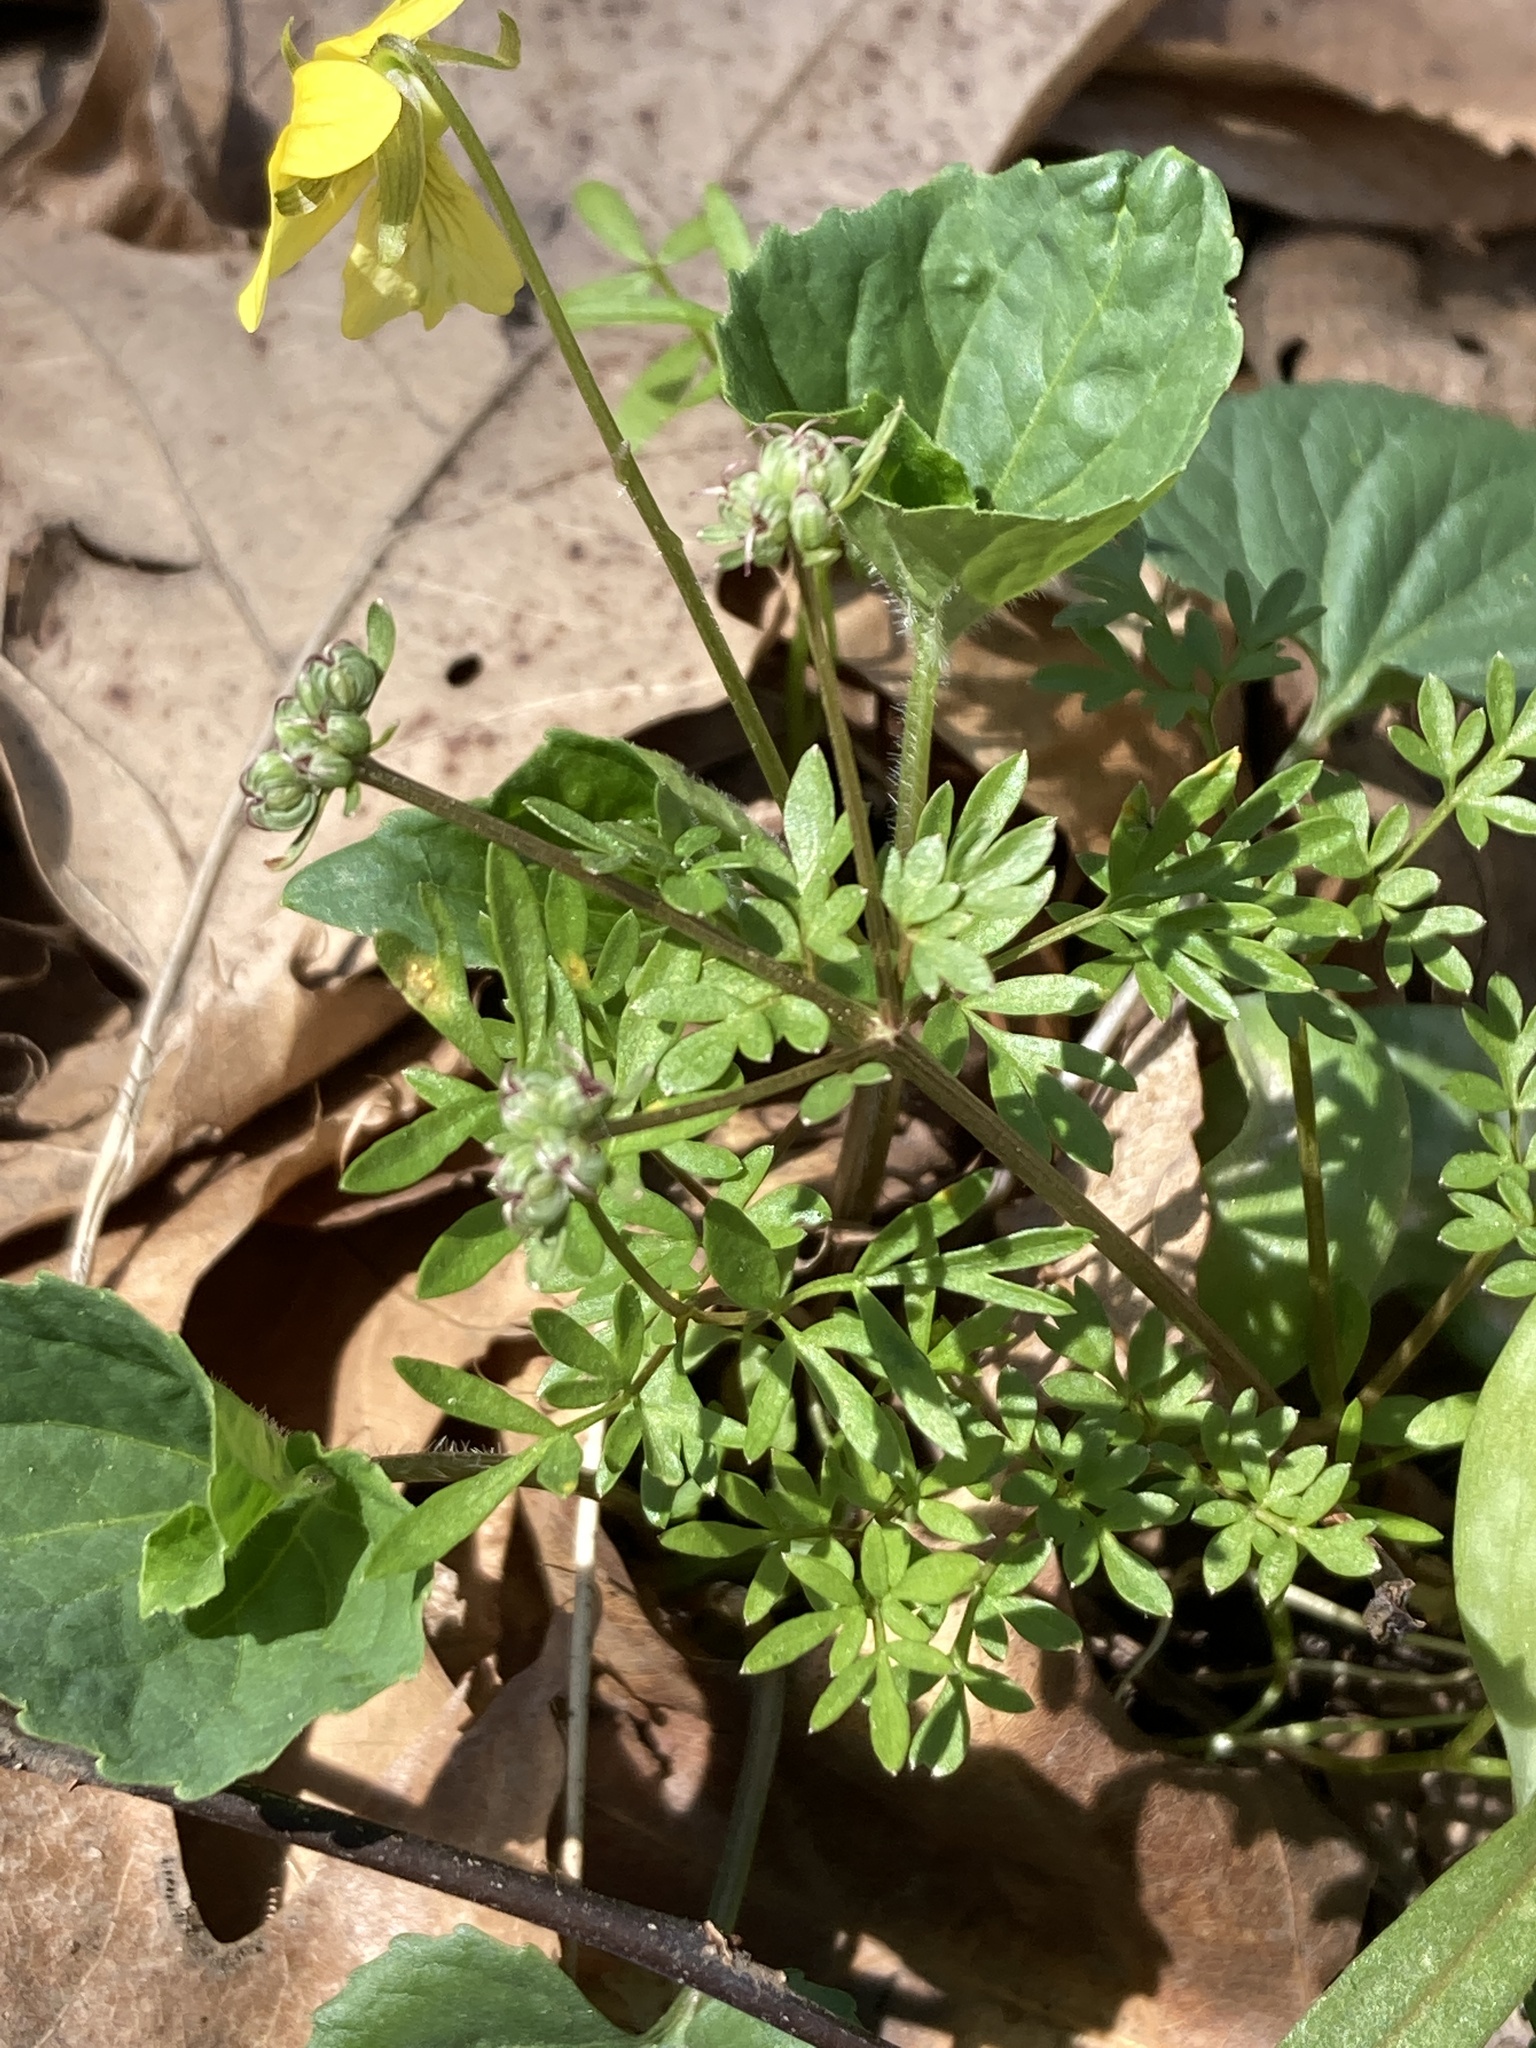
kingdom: Plantae
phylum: Tracheophyta
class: Magnoliopsida
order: Apiales
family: Apiaceae
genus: Erigenia
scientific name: Erigenia bulbosa
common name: Pepper-and-salt
